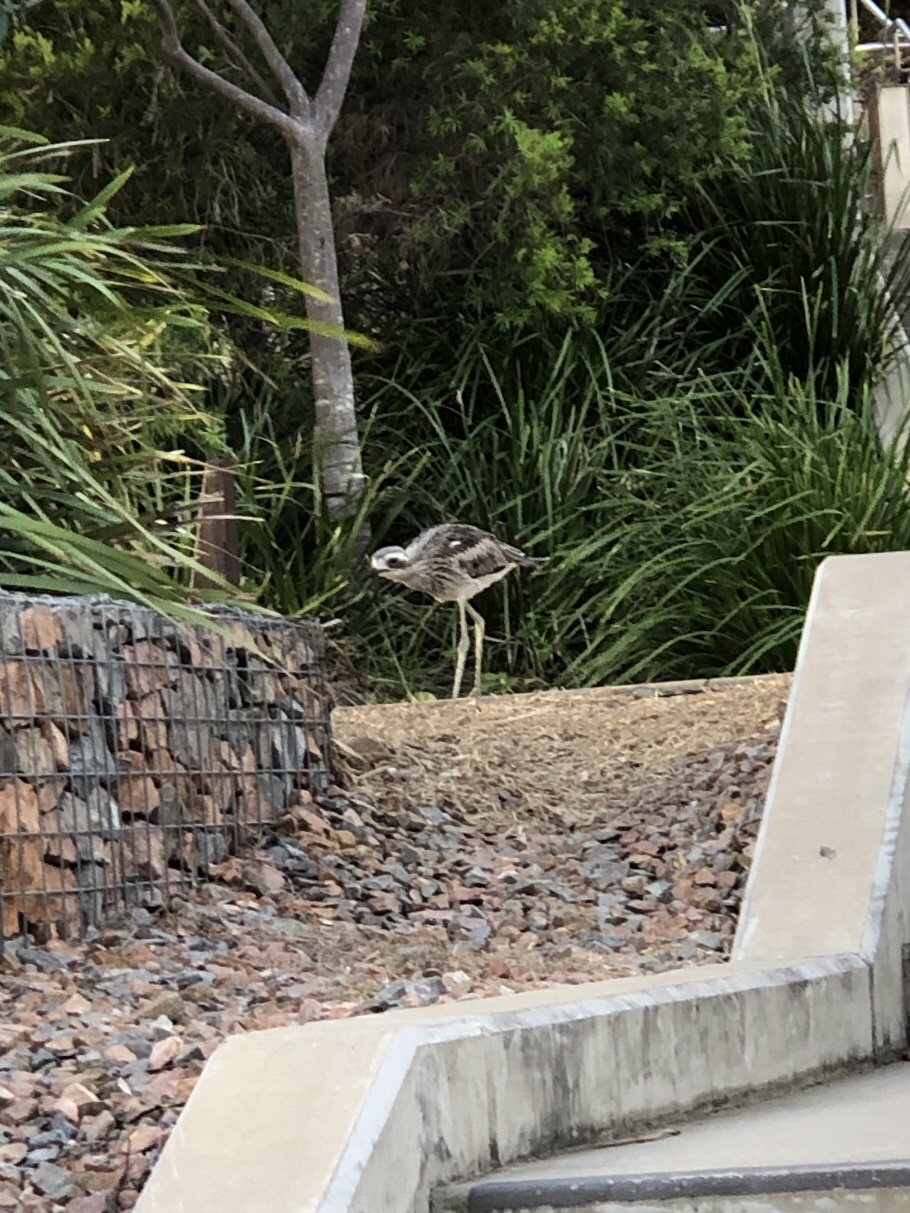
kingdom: Animalia
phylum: Chordata
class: Aves
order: Charadriiformes
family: Burhinidae
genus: Burhinus
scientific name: Burhinus grallarius
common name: Bush stone-curlew
